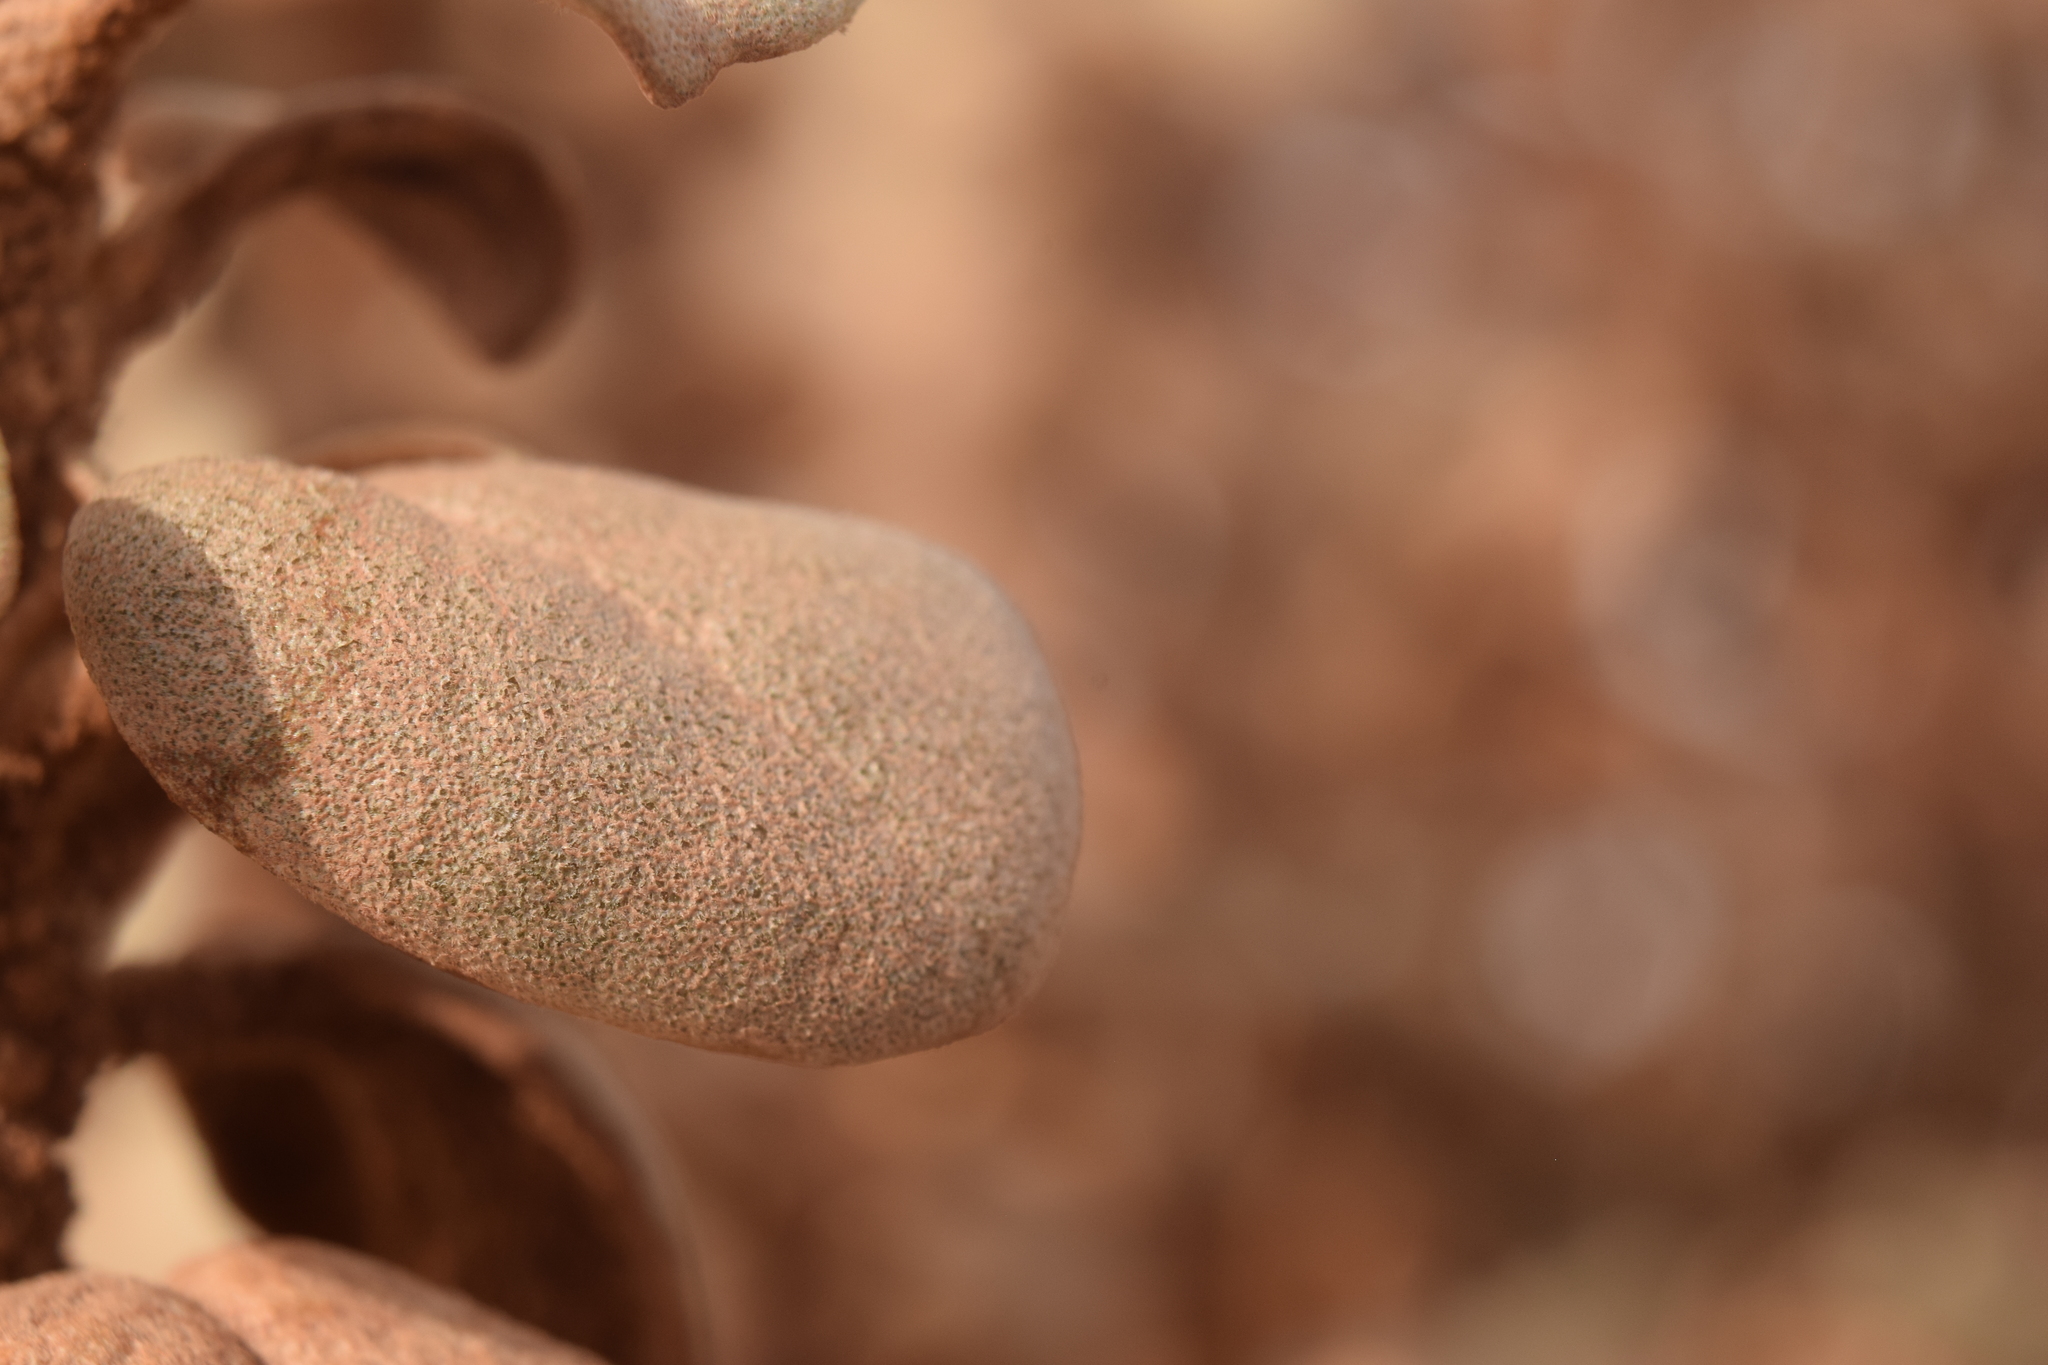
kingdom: Plantae
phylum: Tracheophyta
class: Magnoliopsida
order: Rosales
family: Elaeagnaceae
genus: Shepherdia
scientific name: Shepherdia rotundifolia
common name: Silverscale
